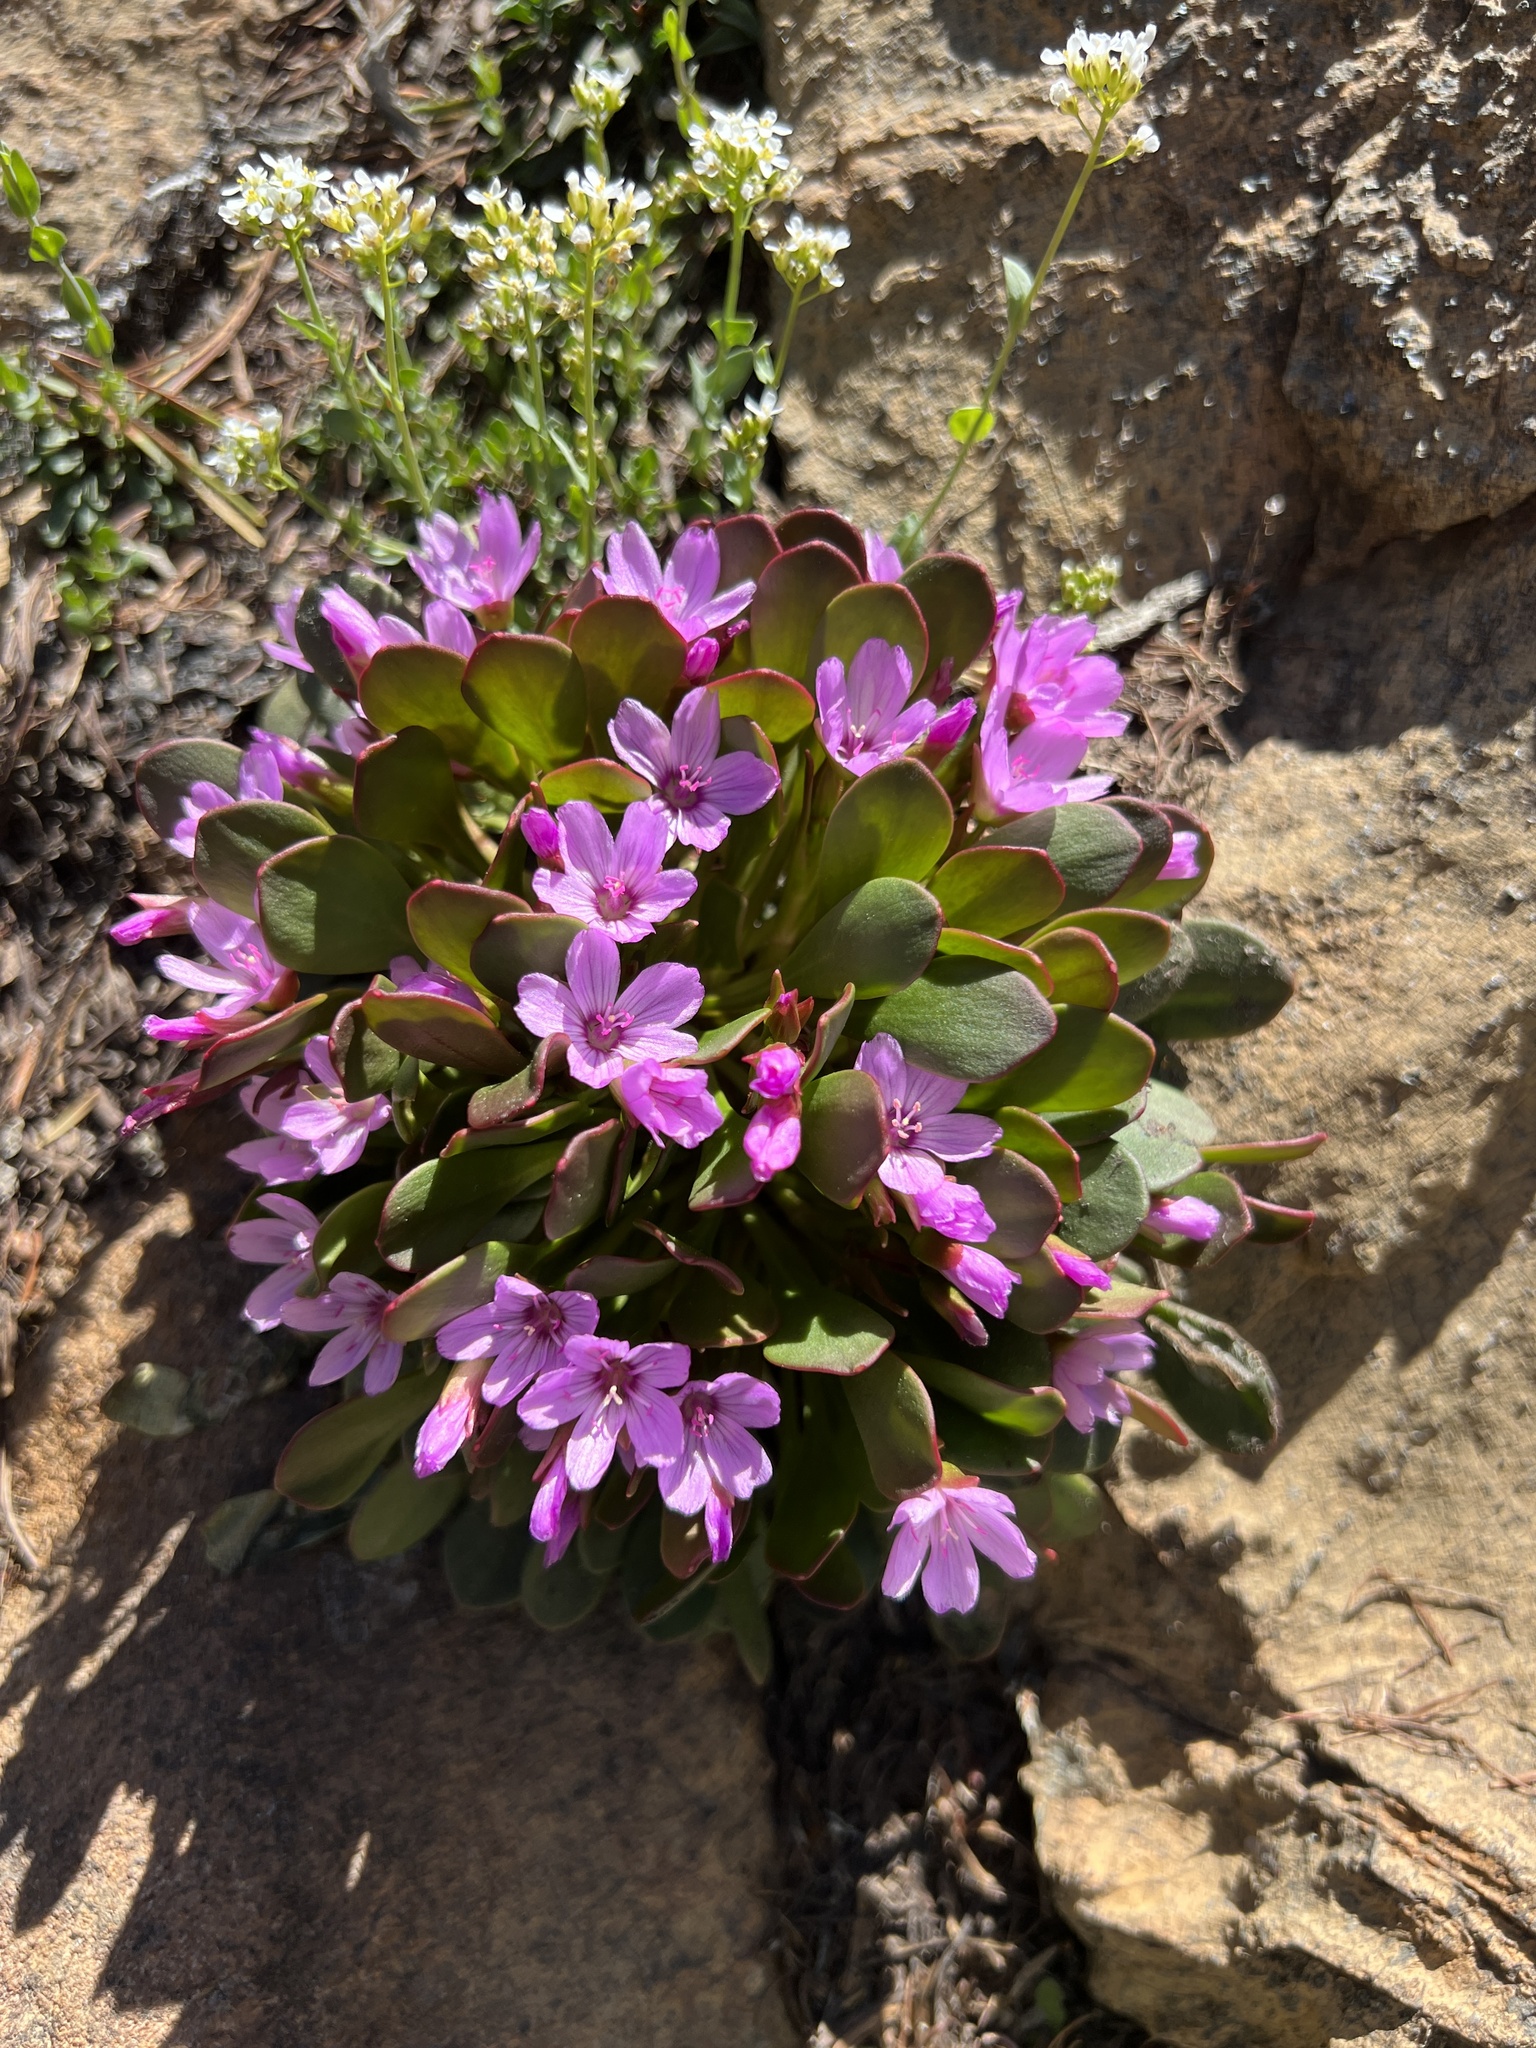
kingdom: Plantae
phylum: Tracheophyta
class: Magnoliopsida
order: Caryophyllales
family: Montiaceae
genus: Claytonia
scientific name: Claytonia megarhiza
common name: Alpine spring beauty
